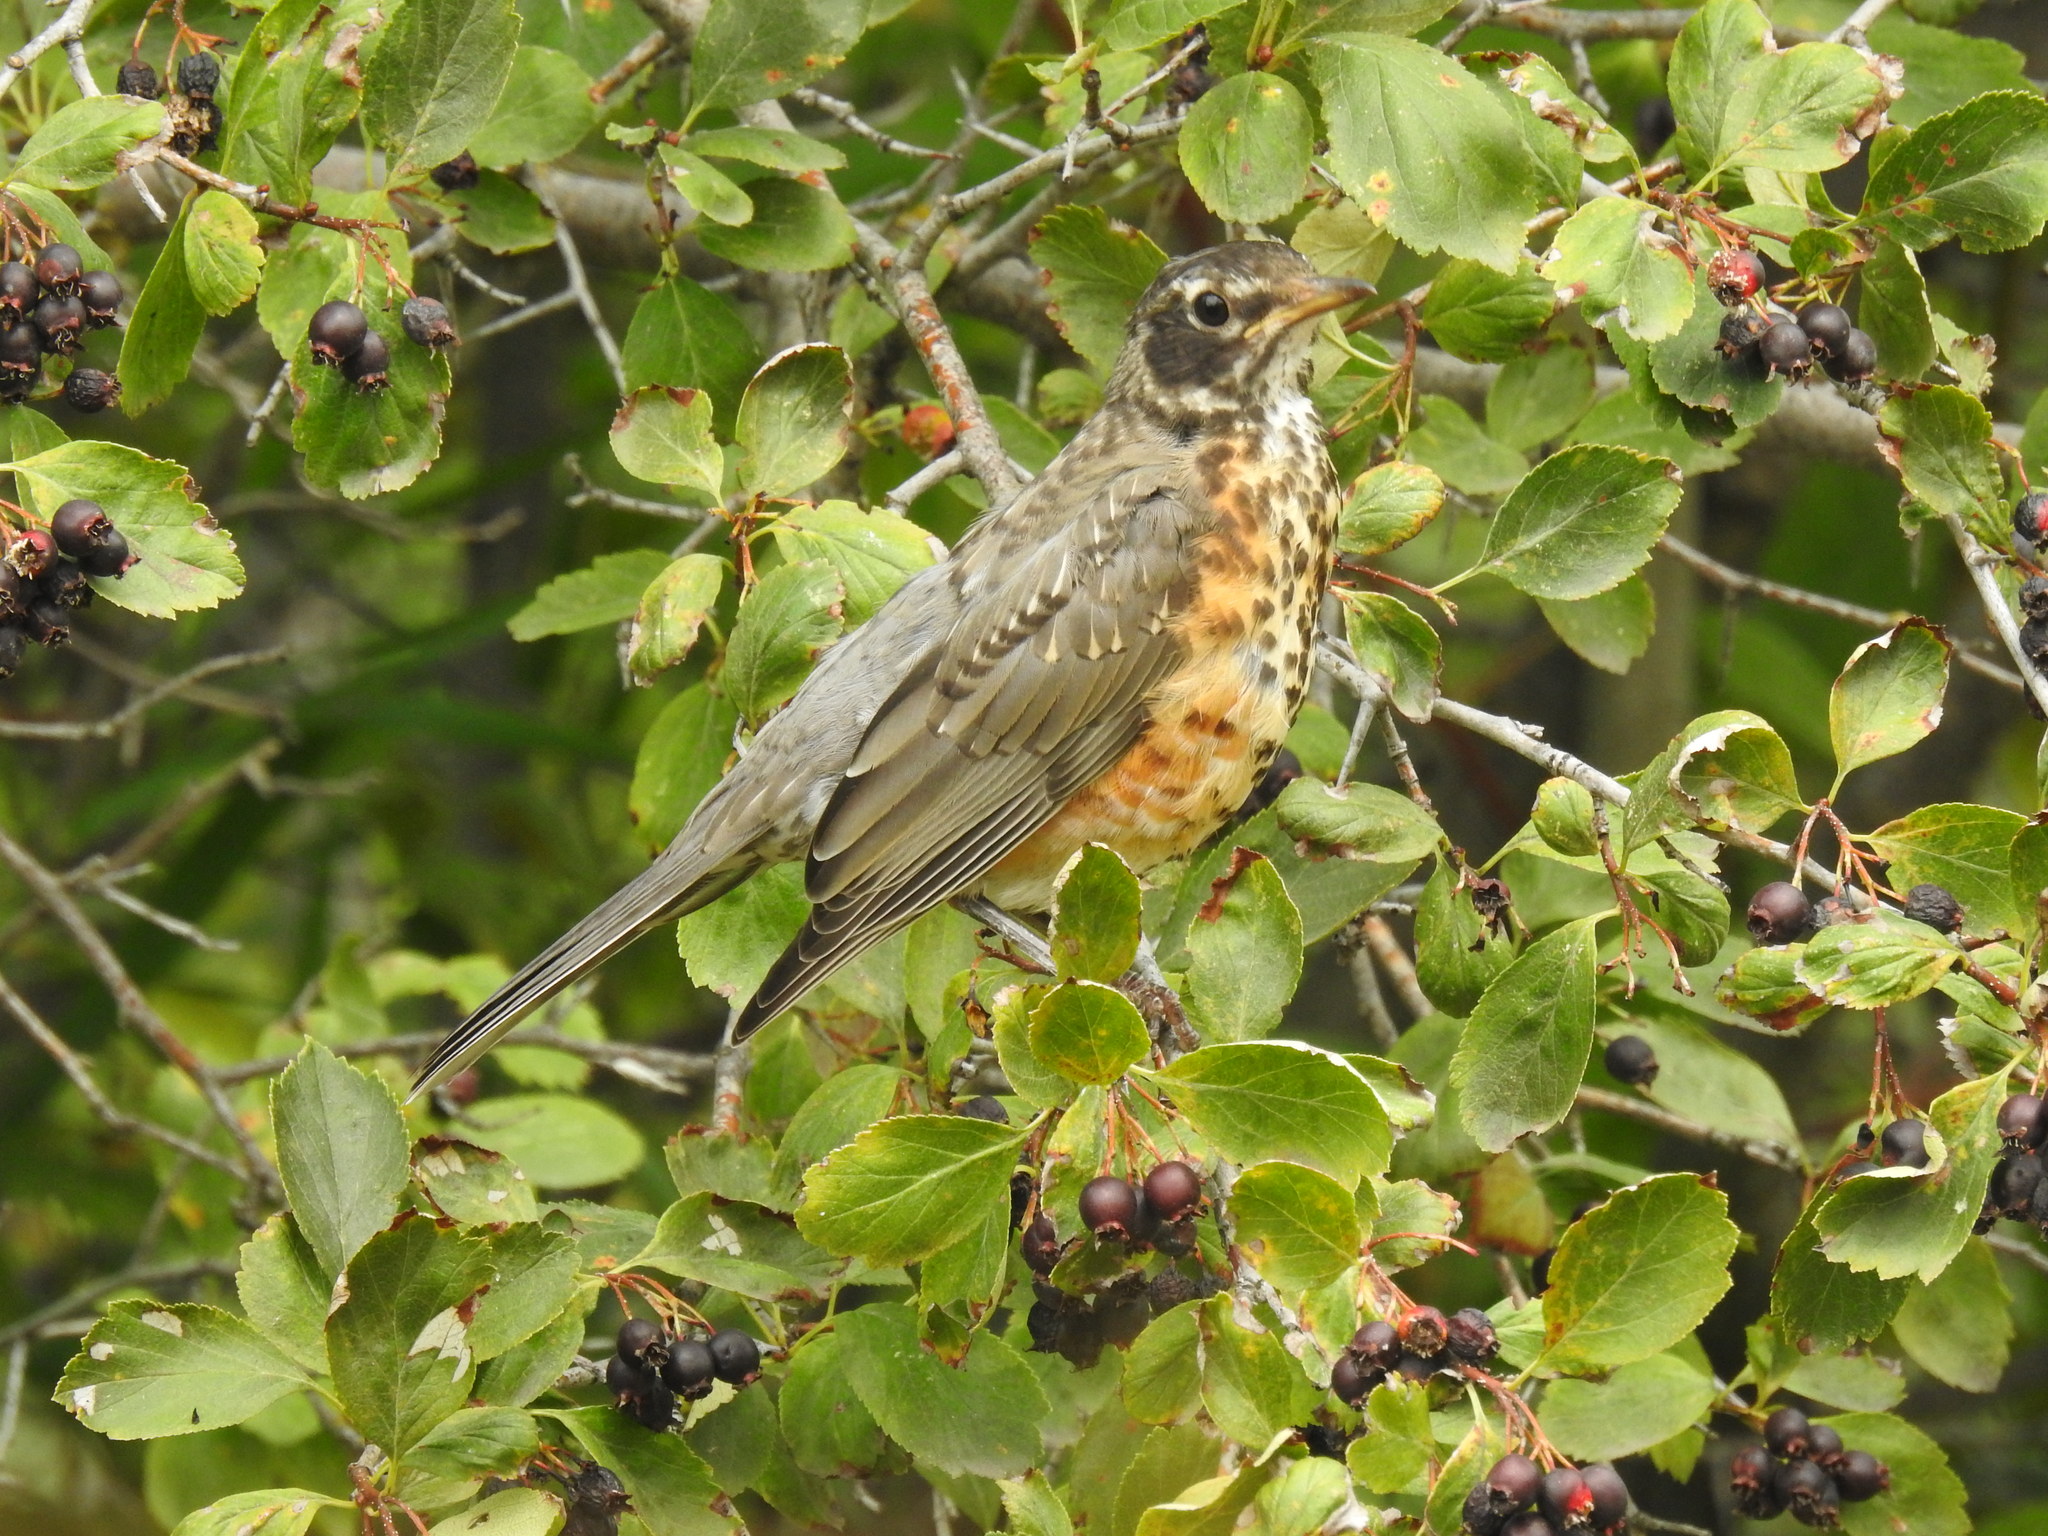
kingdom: Animalia
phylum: Chordata
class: Aves
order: Passeriformes
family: Turdidae
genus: Turdus
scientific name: Turdus migratorius
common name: American robin
